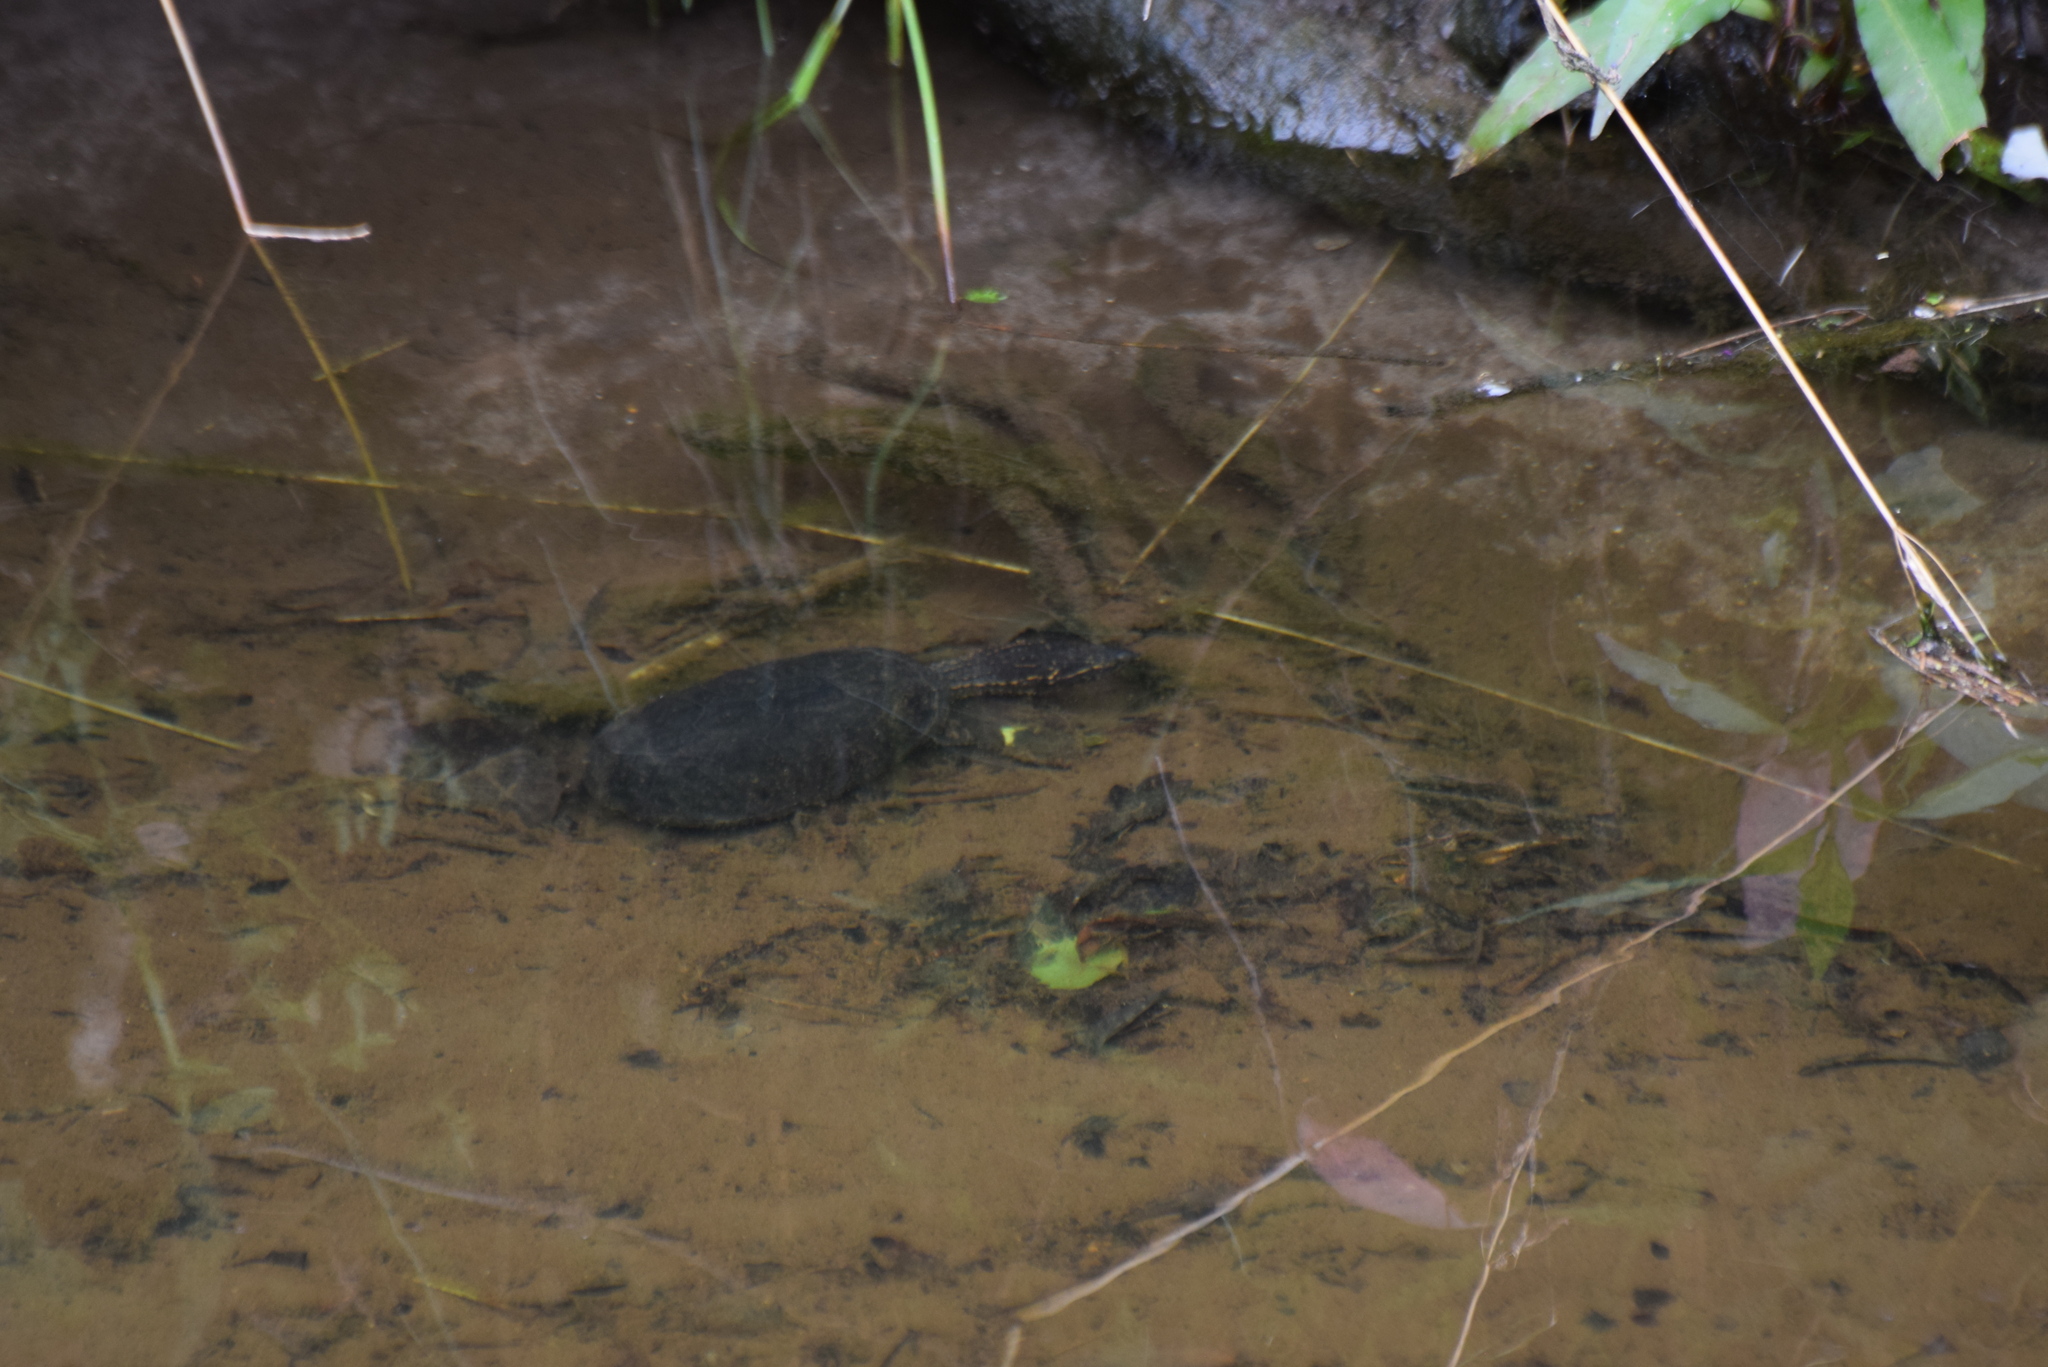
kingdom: Animalia
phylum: Chordata
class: Testudines
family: Kinosternidae
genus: Sternotherus
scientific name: Sternotherus odoratus
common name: Common musk turtle
